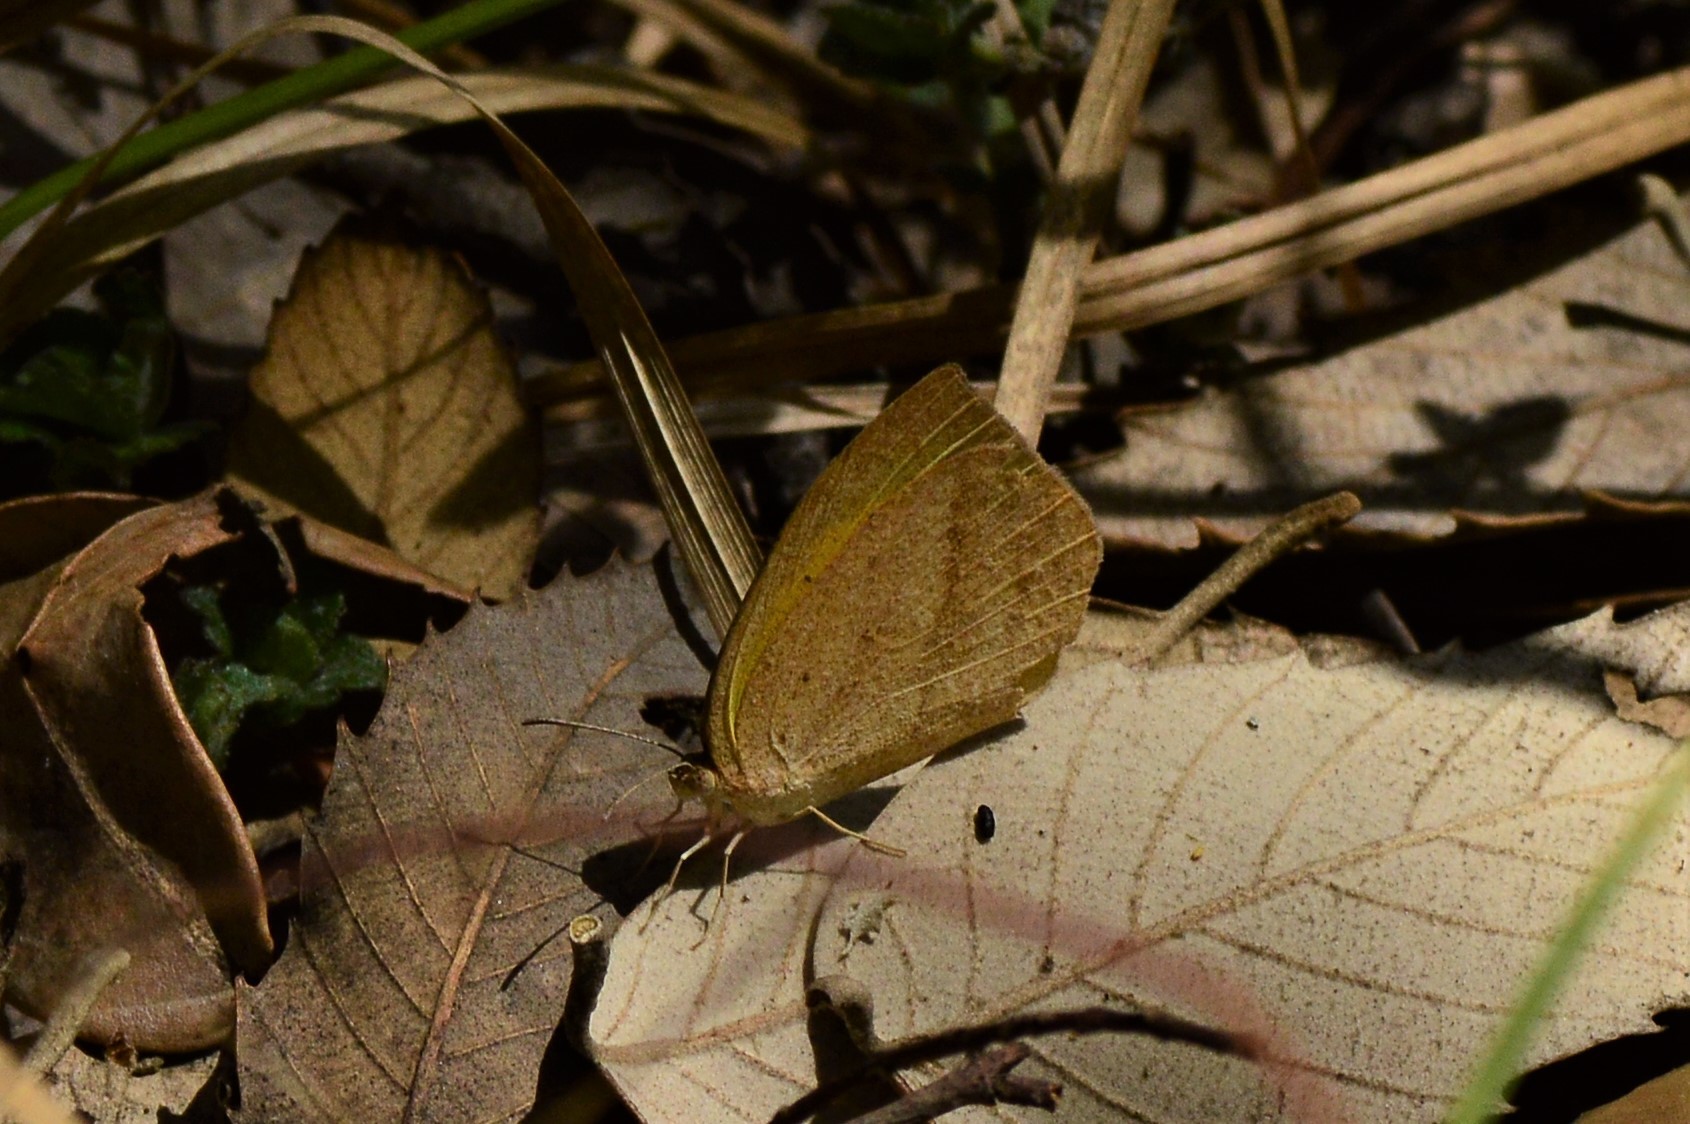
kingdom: Animalia
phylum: Arthropoda
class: Insecta
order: Lepidoptera
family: Pieridae
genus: Eurema
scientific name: Eurema laeta
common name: Spotless grass yellow
